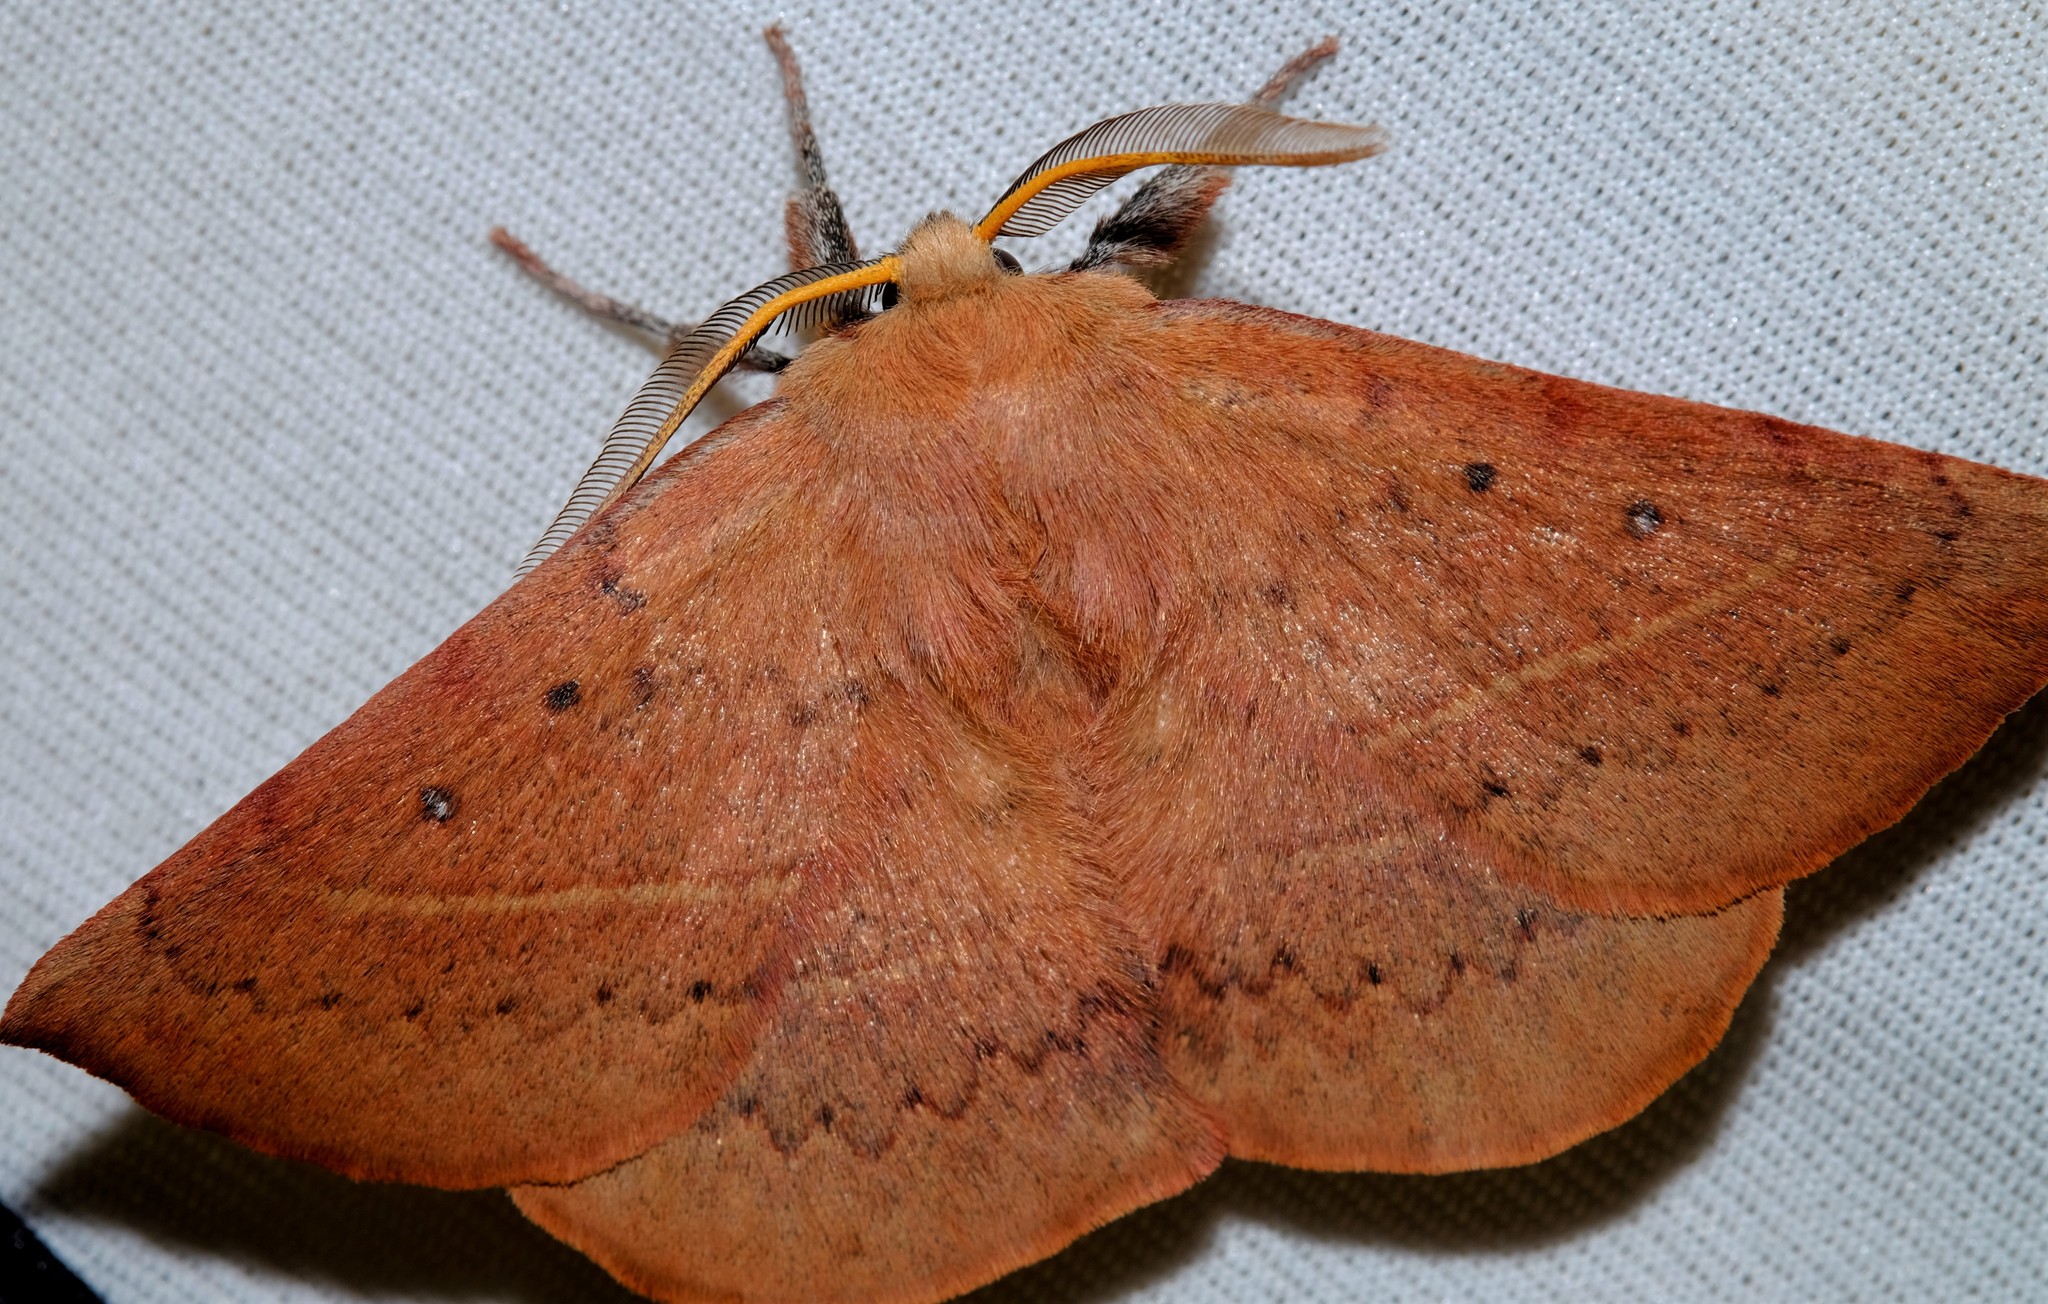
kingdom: Animalia
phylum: Arthropoda
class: Insecta
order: Lepidoptera
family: Anthelidae
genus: Anthela
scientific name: Anthela acuta
